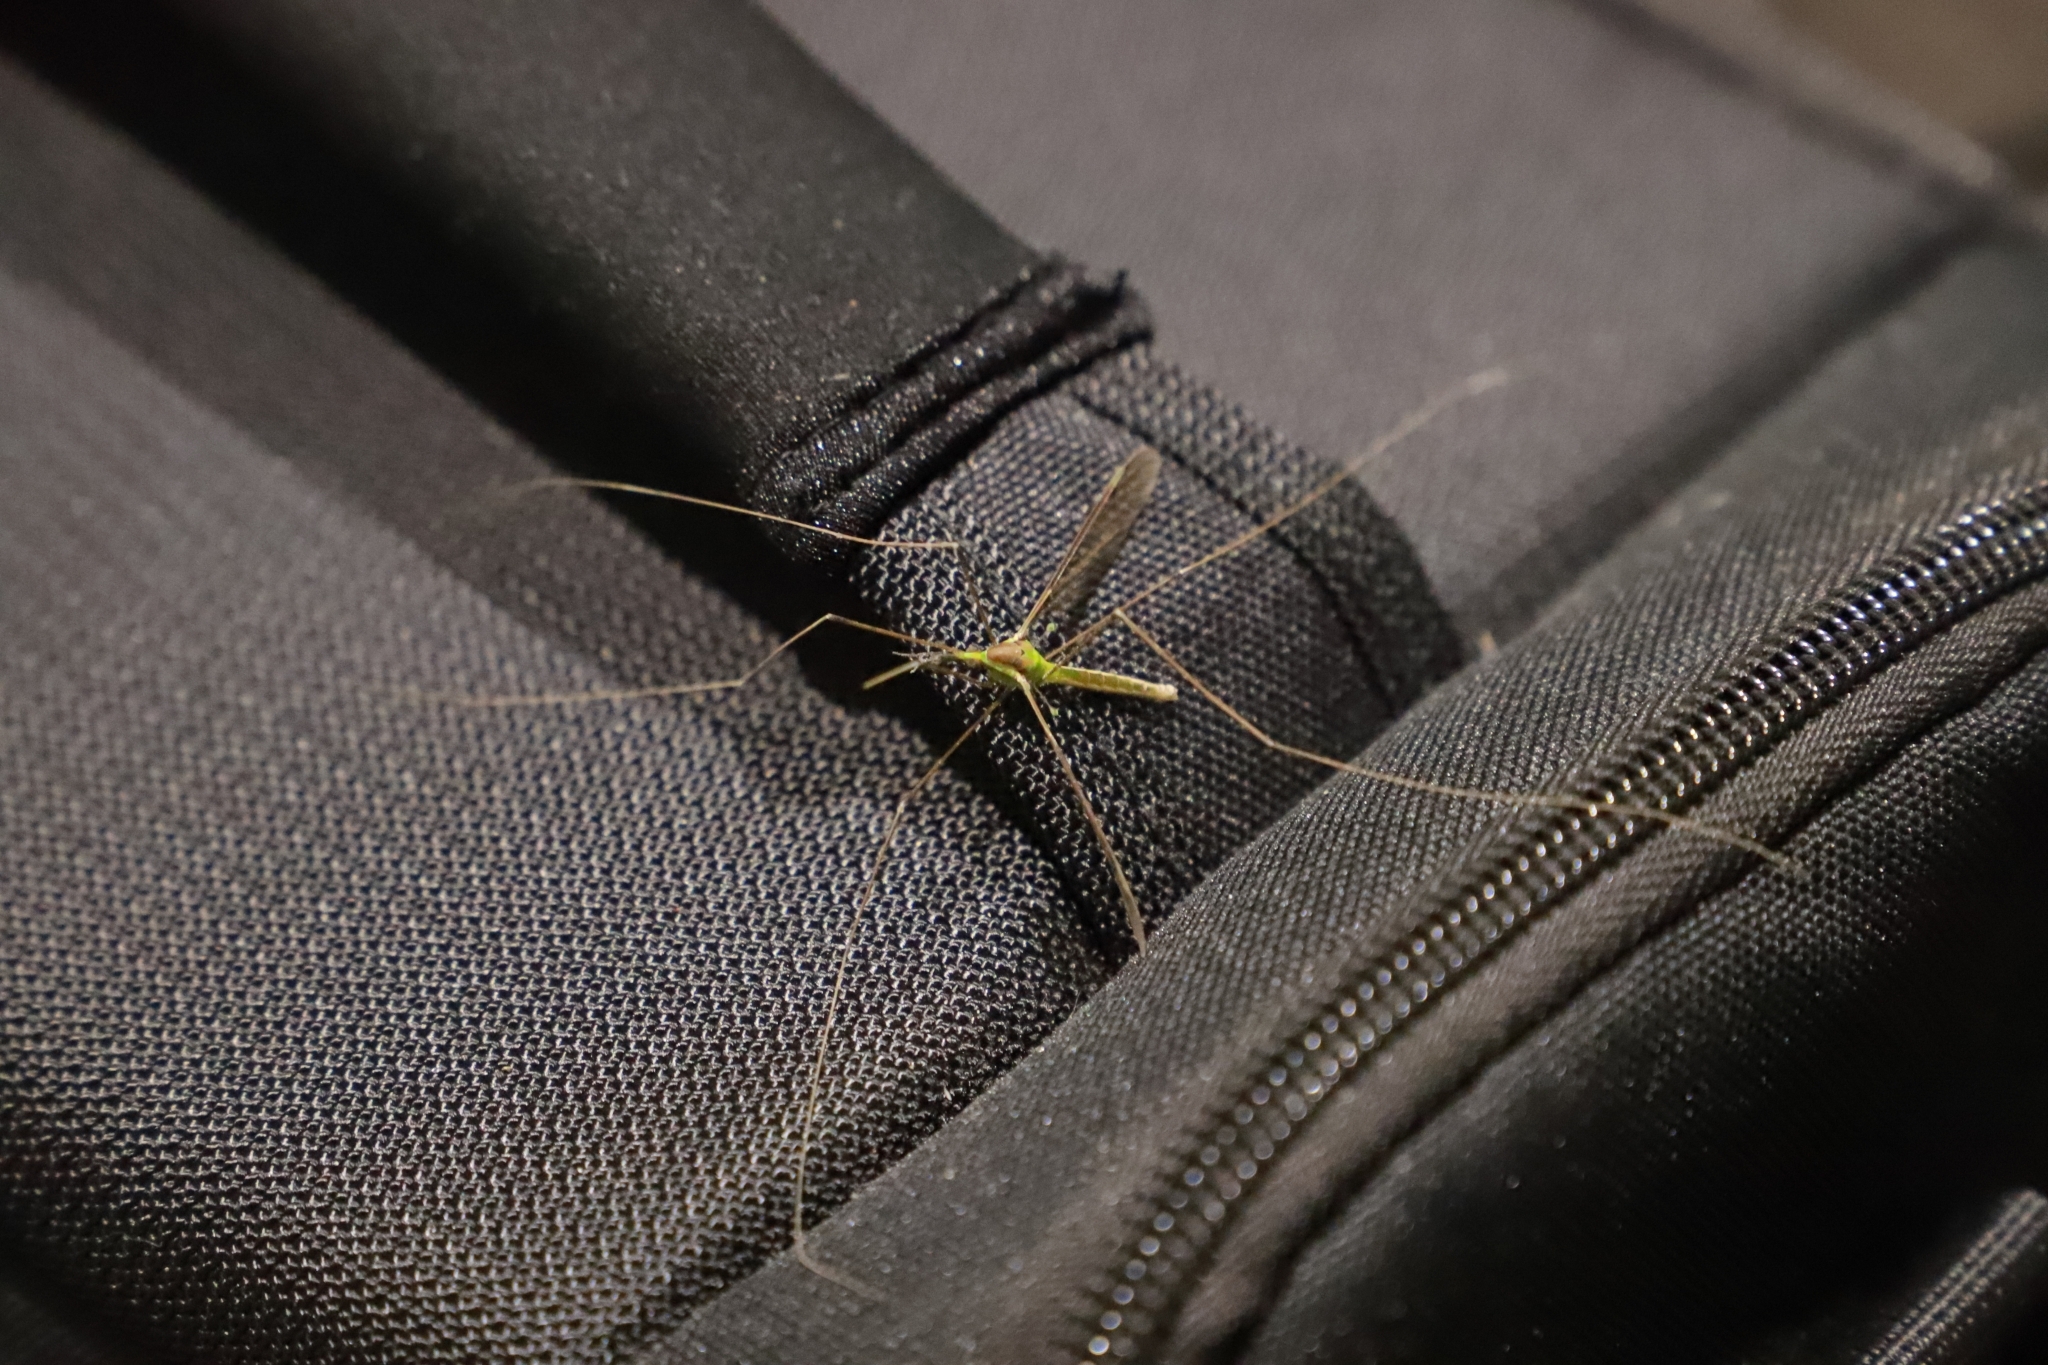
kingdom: Animalia
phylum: Arthropoda
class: Insecta
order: Diptera
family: Tipulidae
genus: Leptotarsus
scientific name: Leptotarsus albistigma
